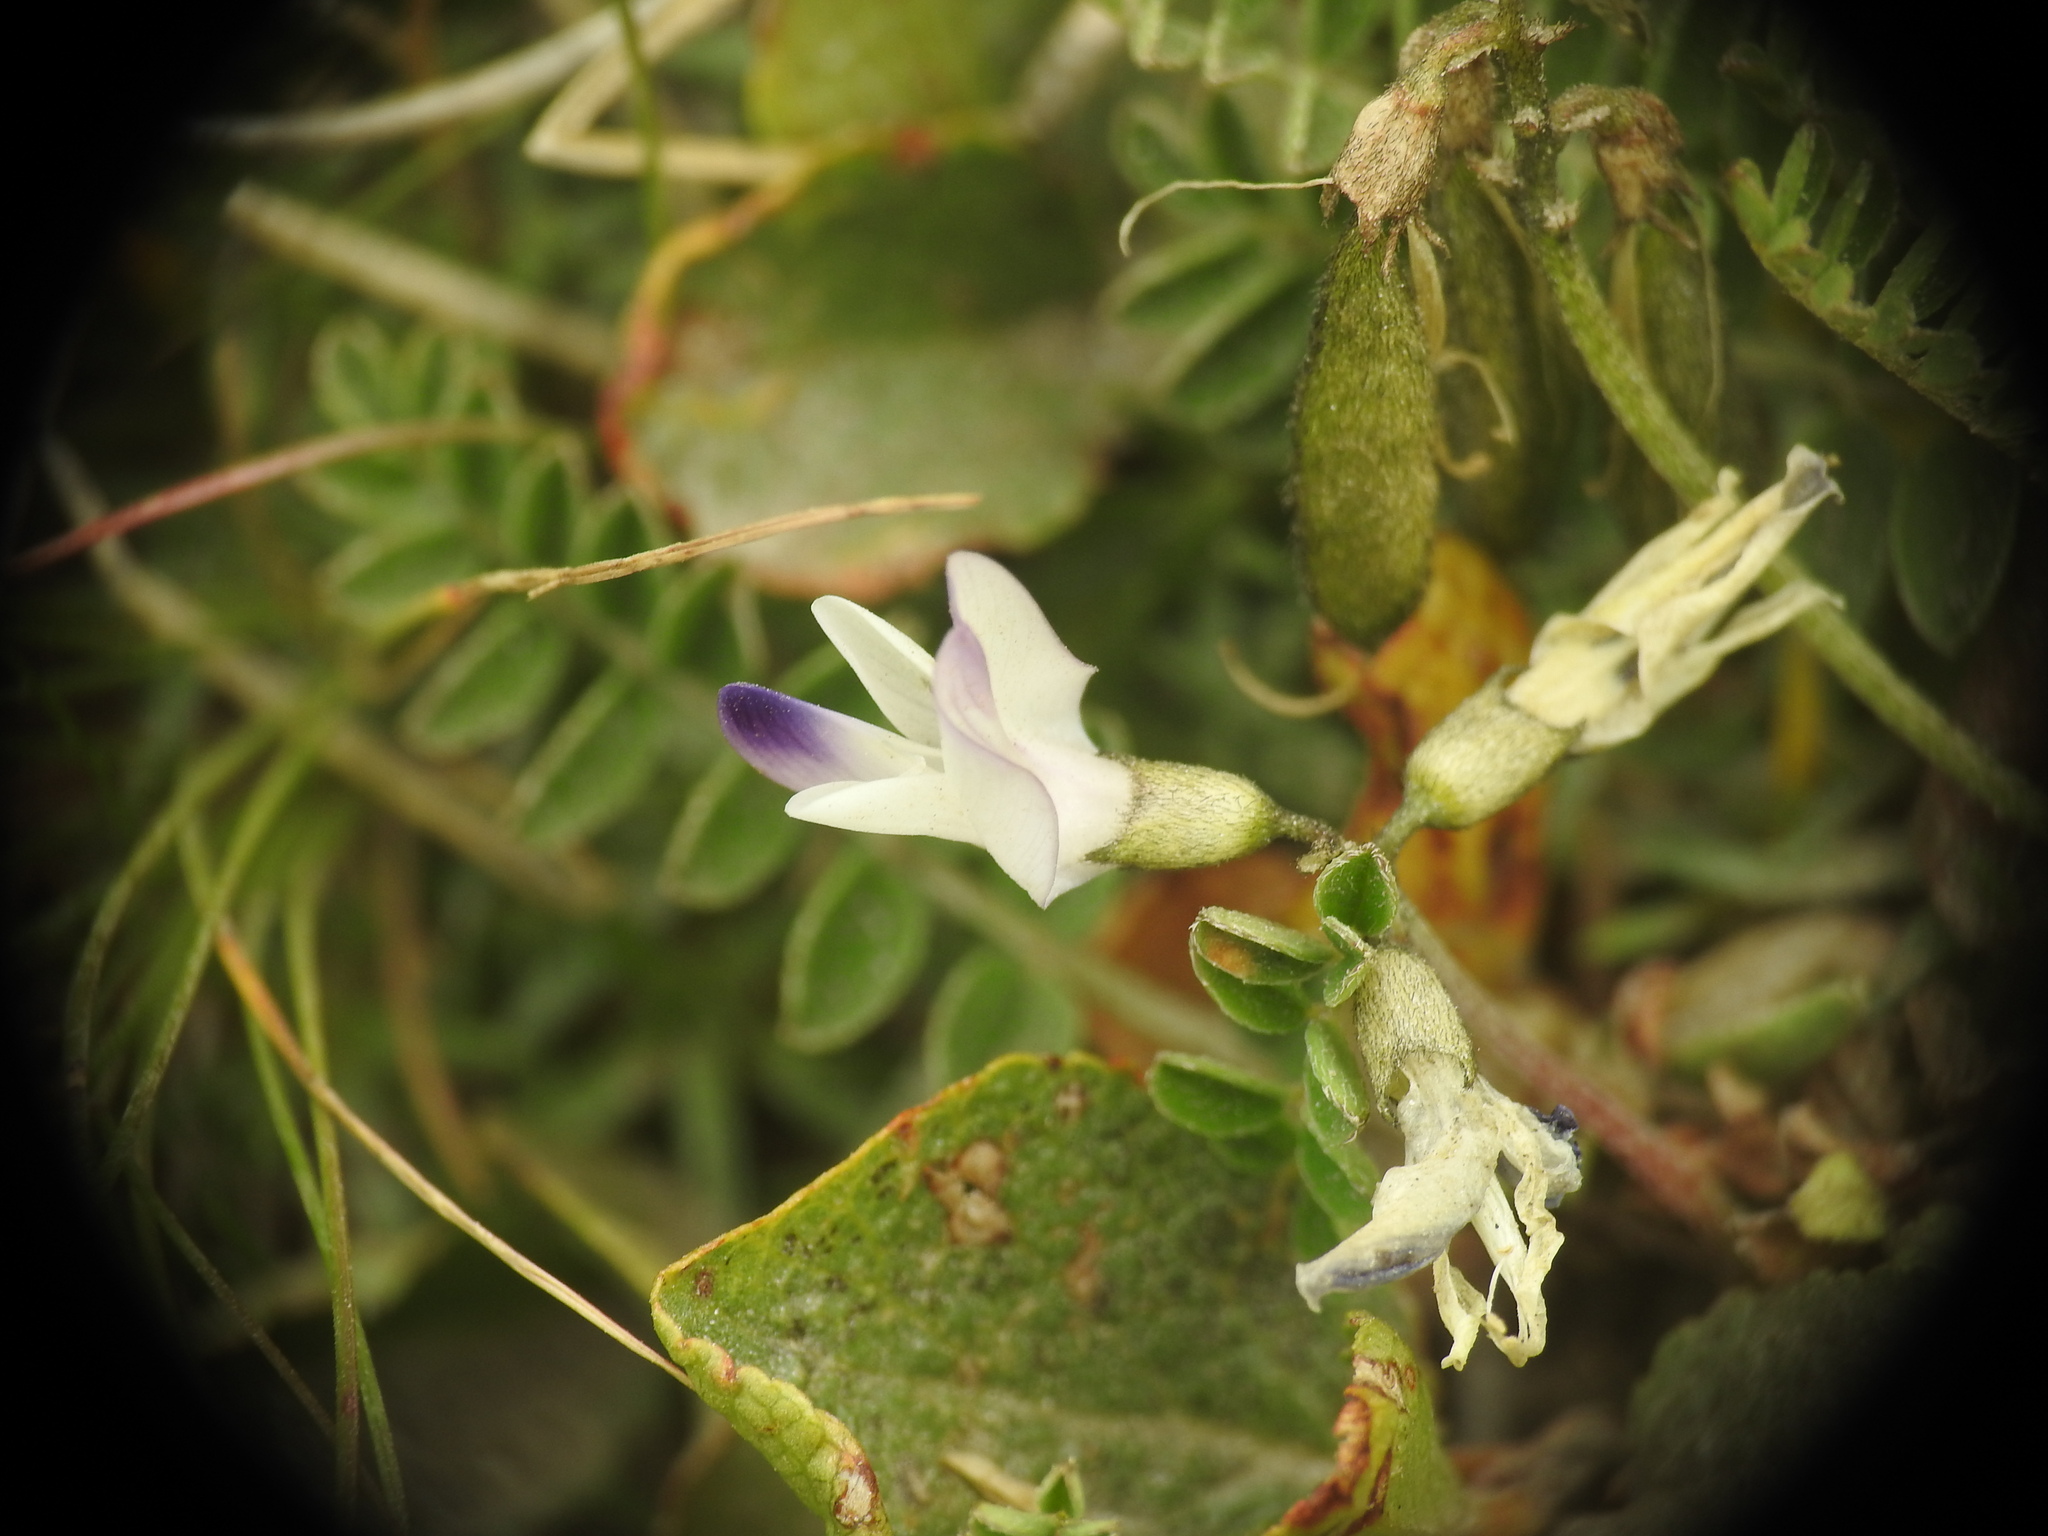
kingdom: Plantae
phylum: Tracheophyta
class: Magnoliopsida
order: Fabales
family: Fabaceae
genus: Astragalus
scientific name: Astragalus alpinus
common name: Alpine milk-vetch
